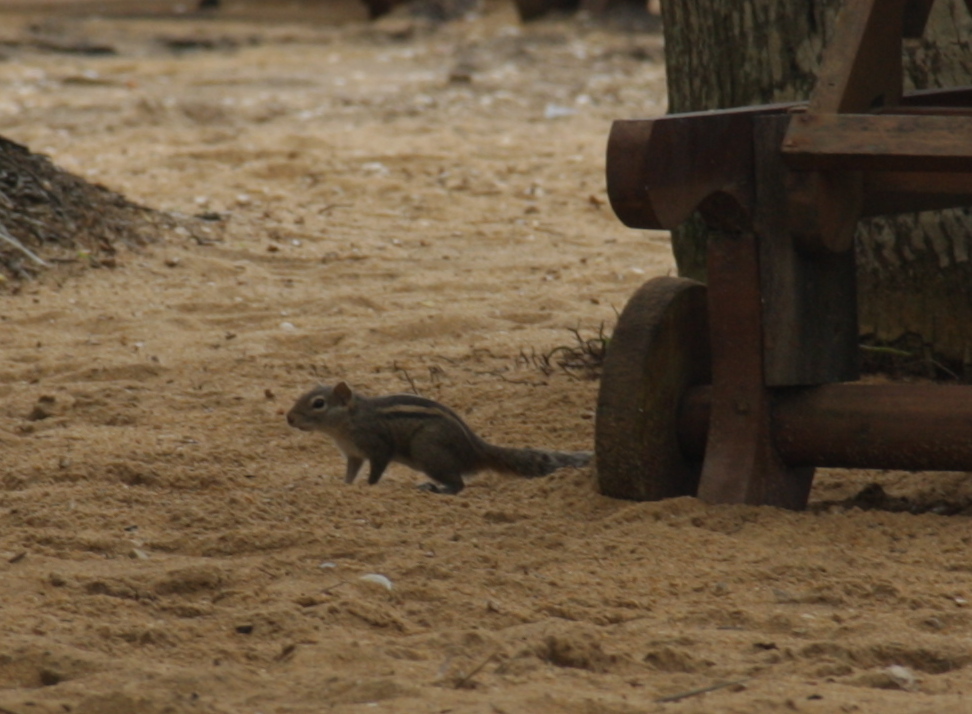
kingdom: Animalia
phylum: Chordata
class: Mammalia
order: Rodentia
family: Sciuridae
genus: Funambulus
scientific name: Funambulus palmarum
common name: Indian palm squirrel
